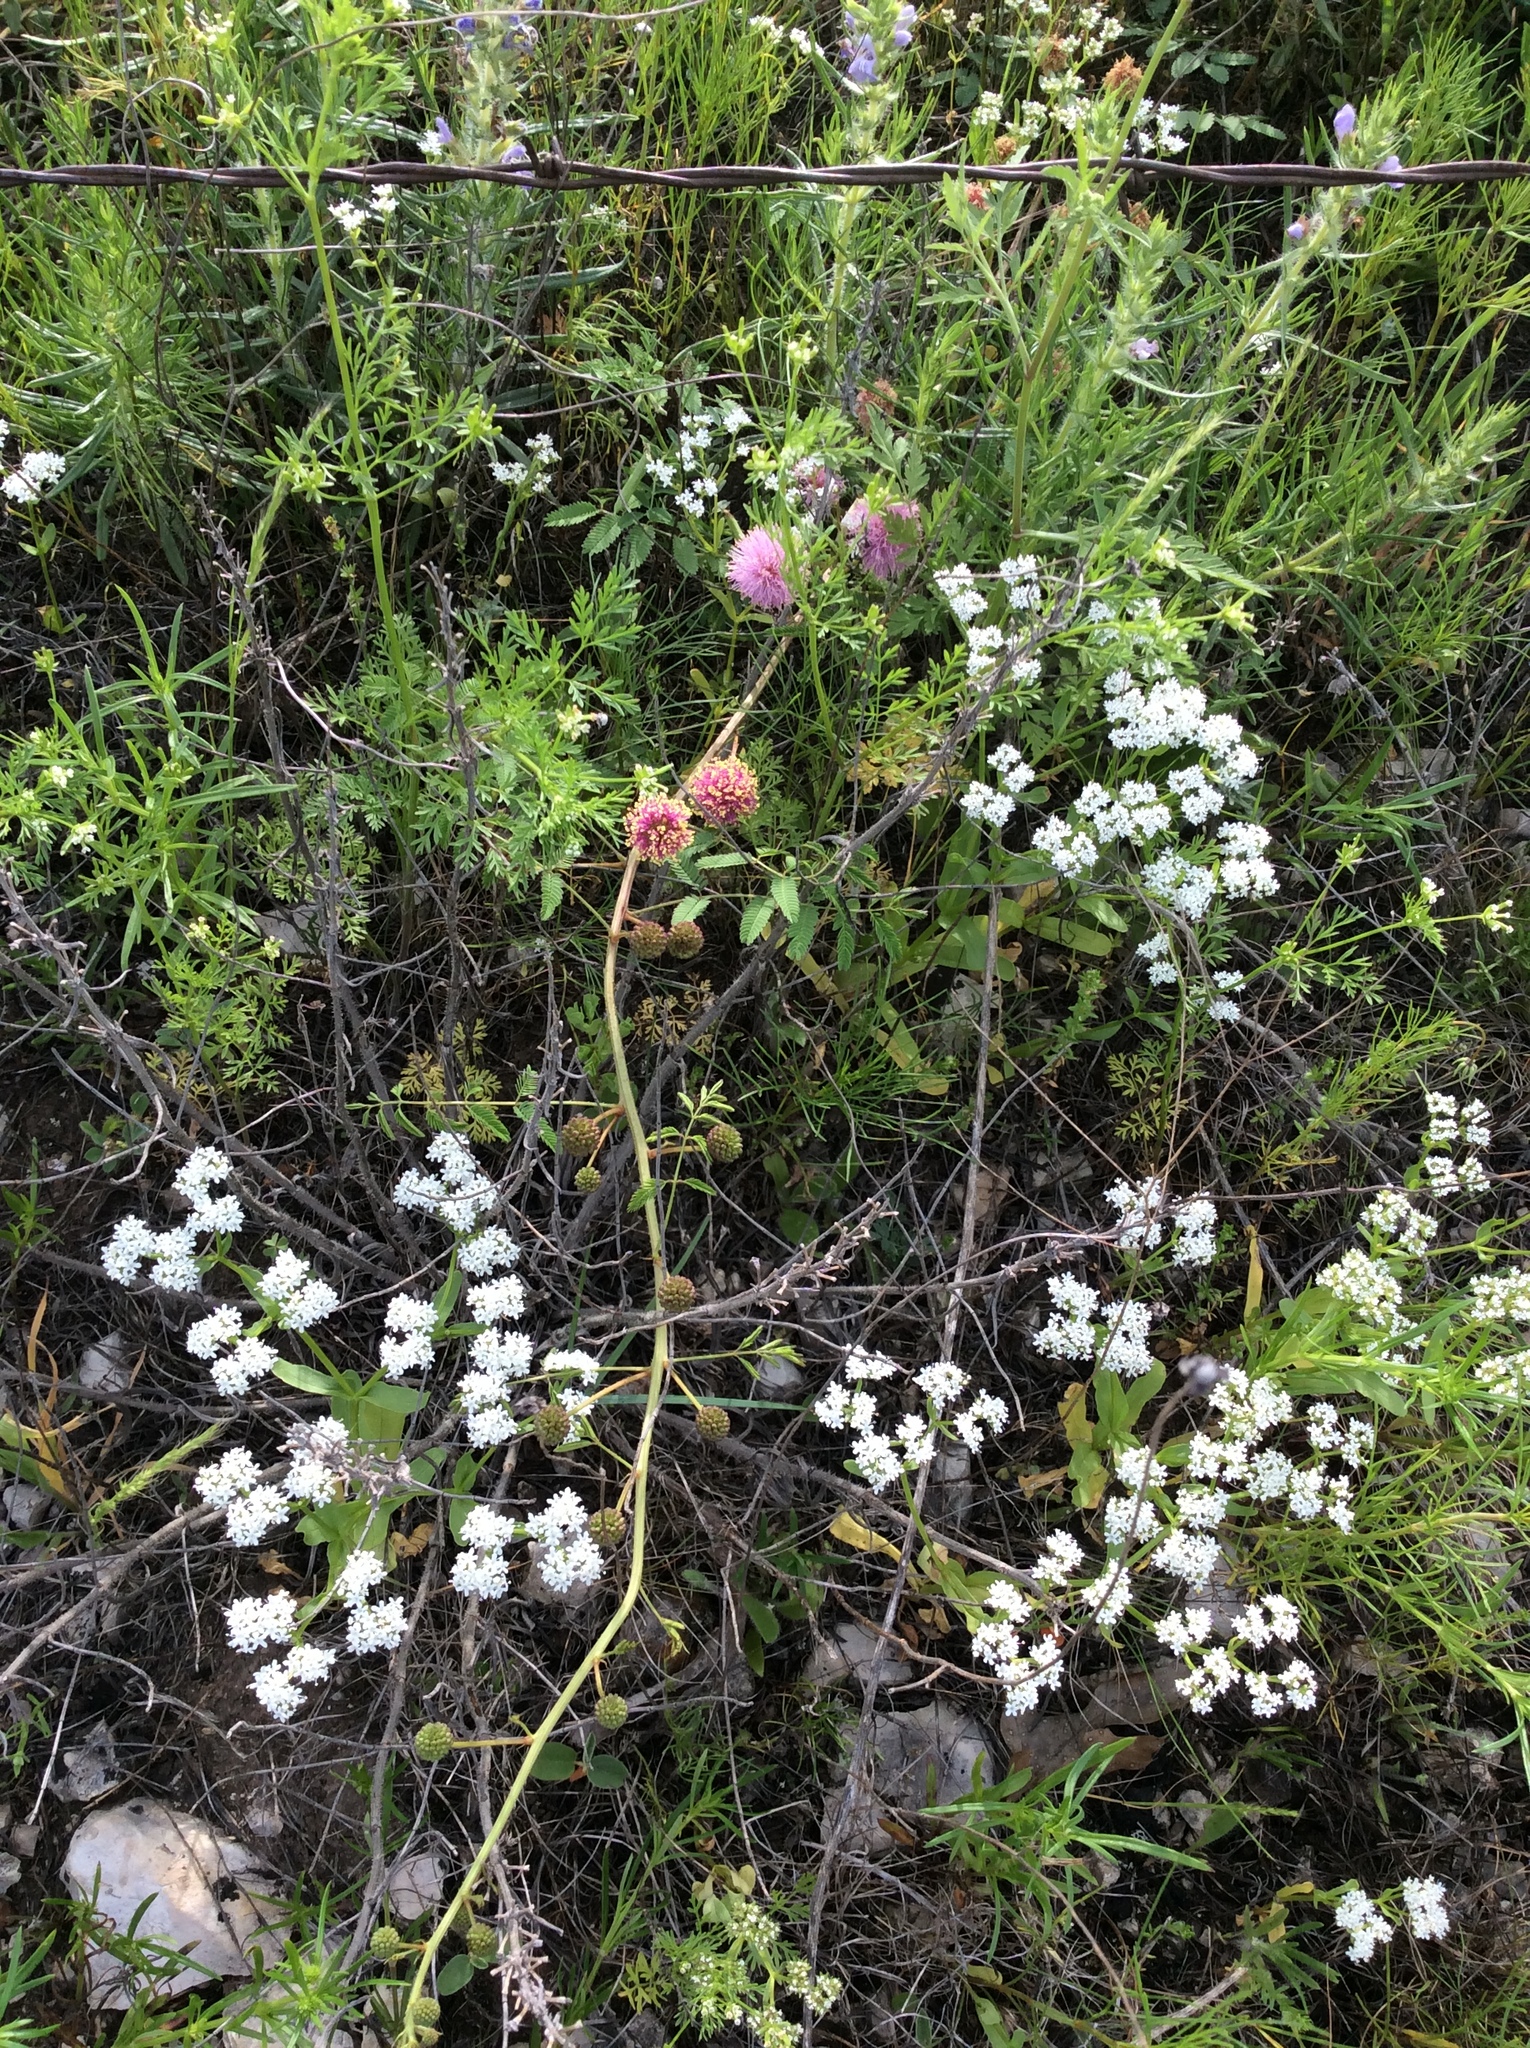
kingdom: Plantae
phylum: Tracheophyta
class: Magnoliopsida
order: Dipsacales
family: Caprifoliaceae
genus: Valerianella
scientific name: Valerianella amarella
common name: Hariy cornsalad
